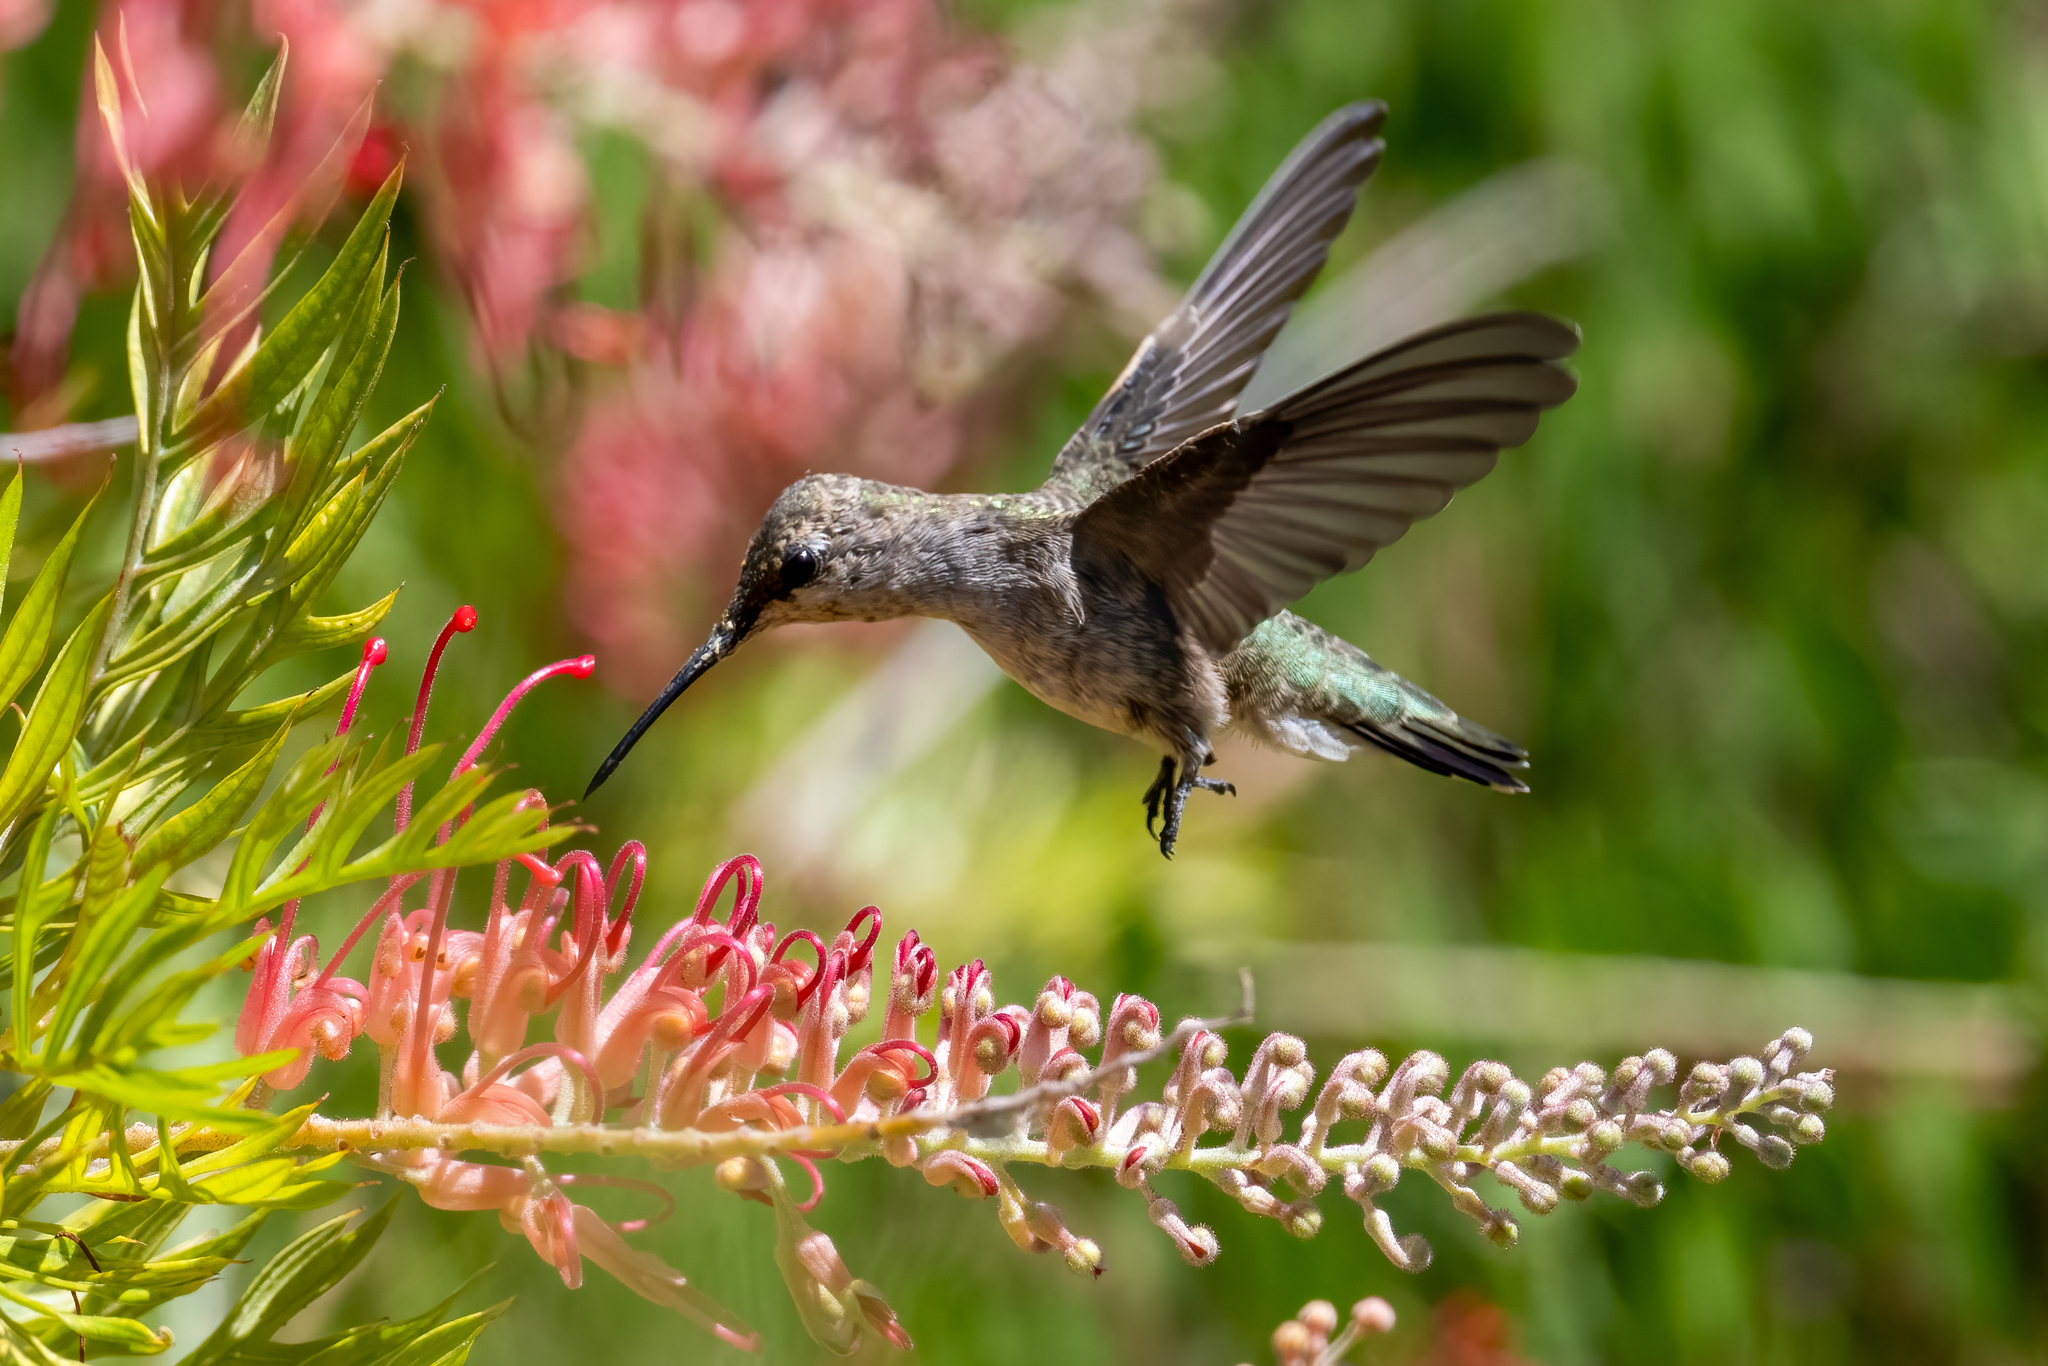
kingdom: Animalia
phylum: Chordata
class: Aves
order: Apodiformes
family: Trochilidae
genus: Archilochus
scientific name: Archilochus alexandri
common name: Black-chinned hummingbird
